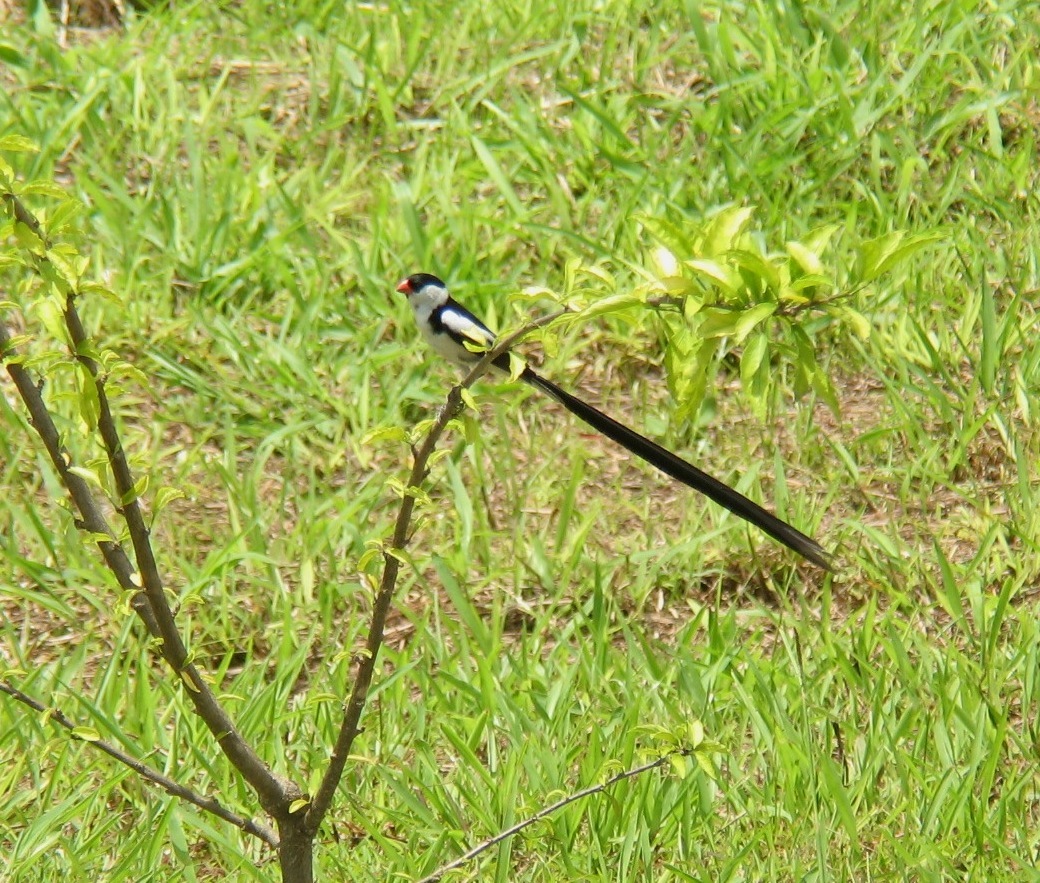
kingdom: Animalia
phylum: Chordata
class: Aves
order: Passeriformes
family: Viduidae
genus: Vidua
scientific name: Vidua macroura
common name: Pin-tailed whydah
